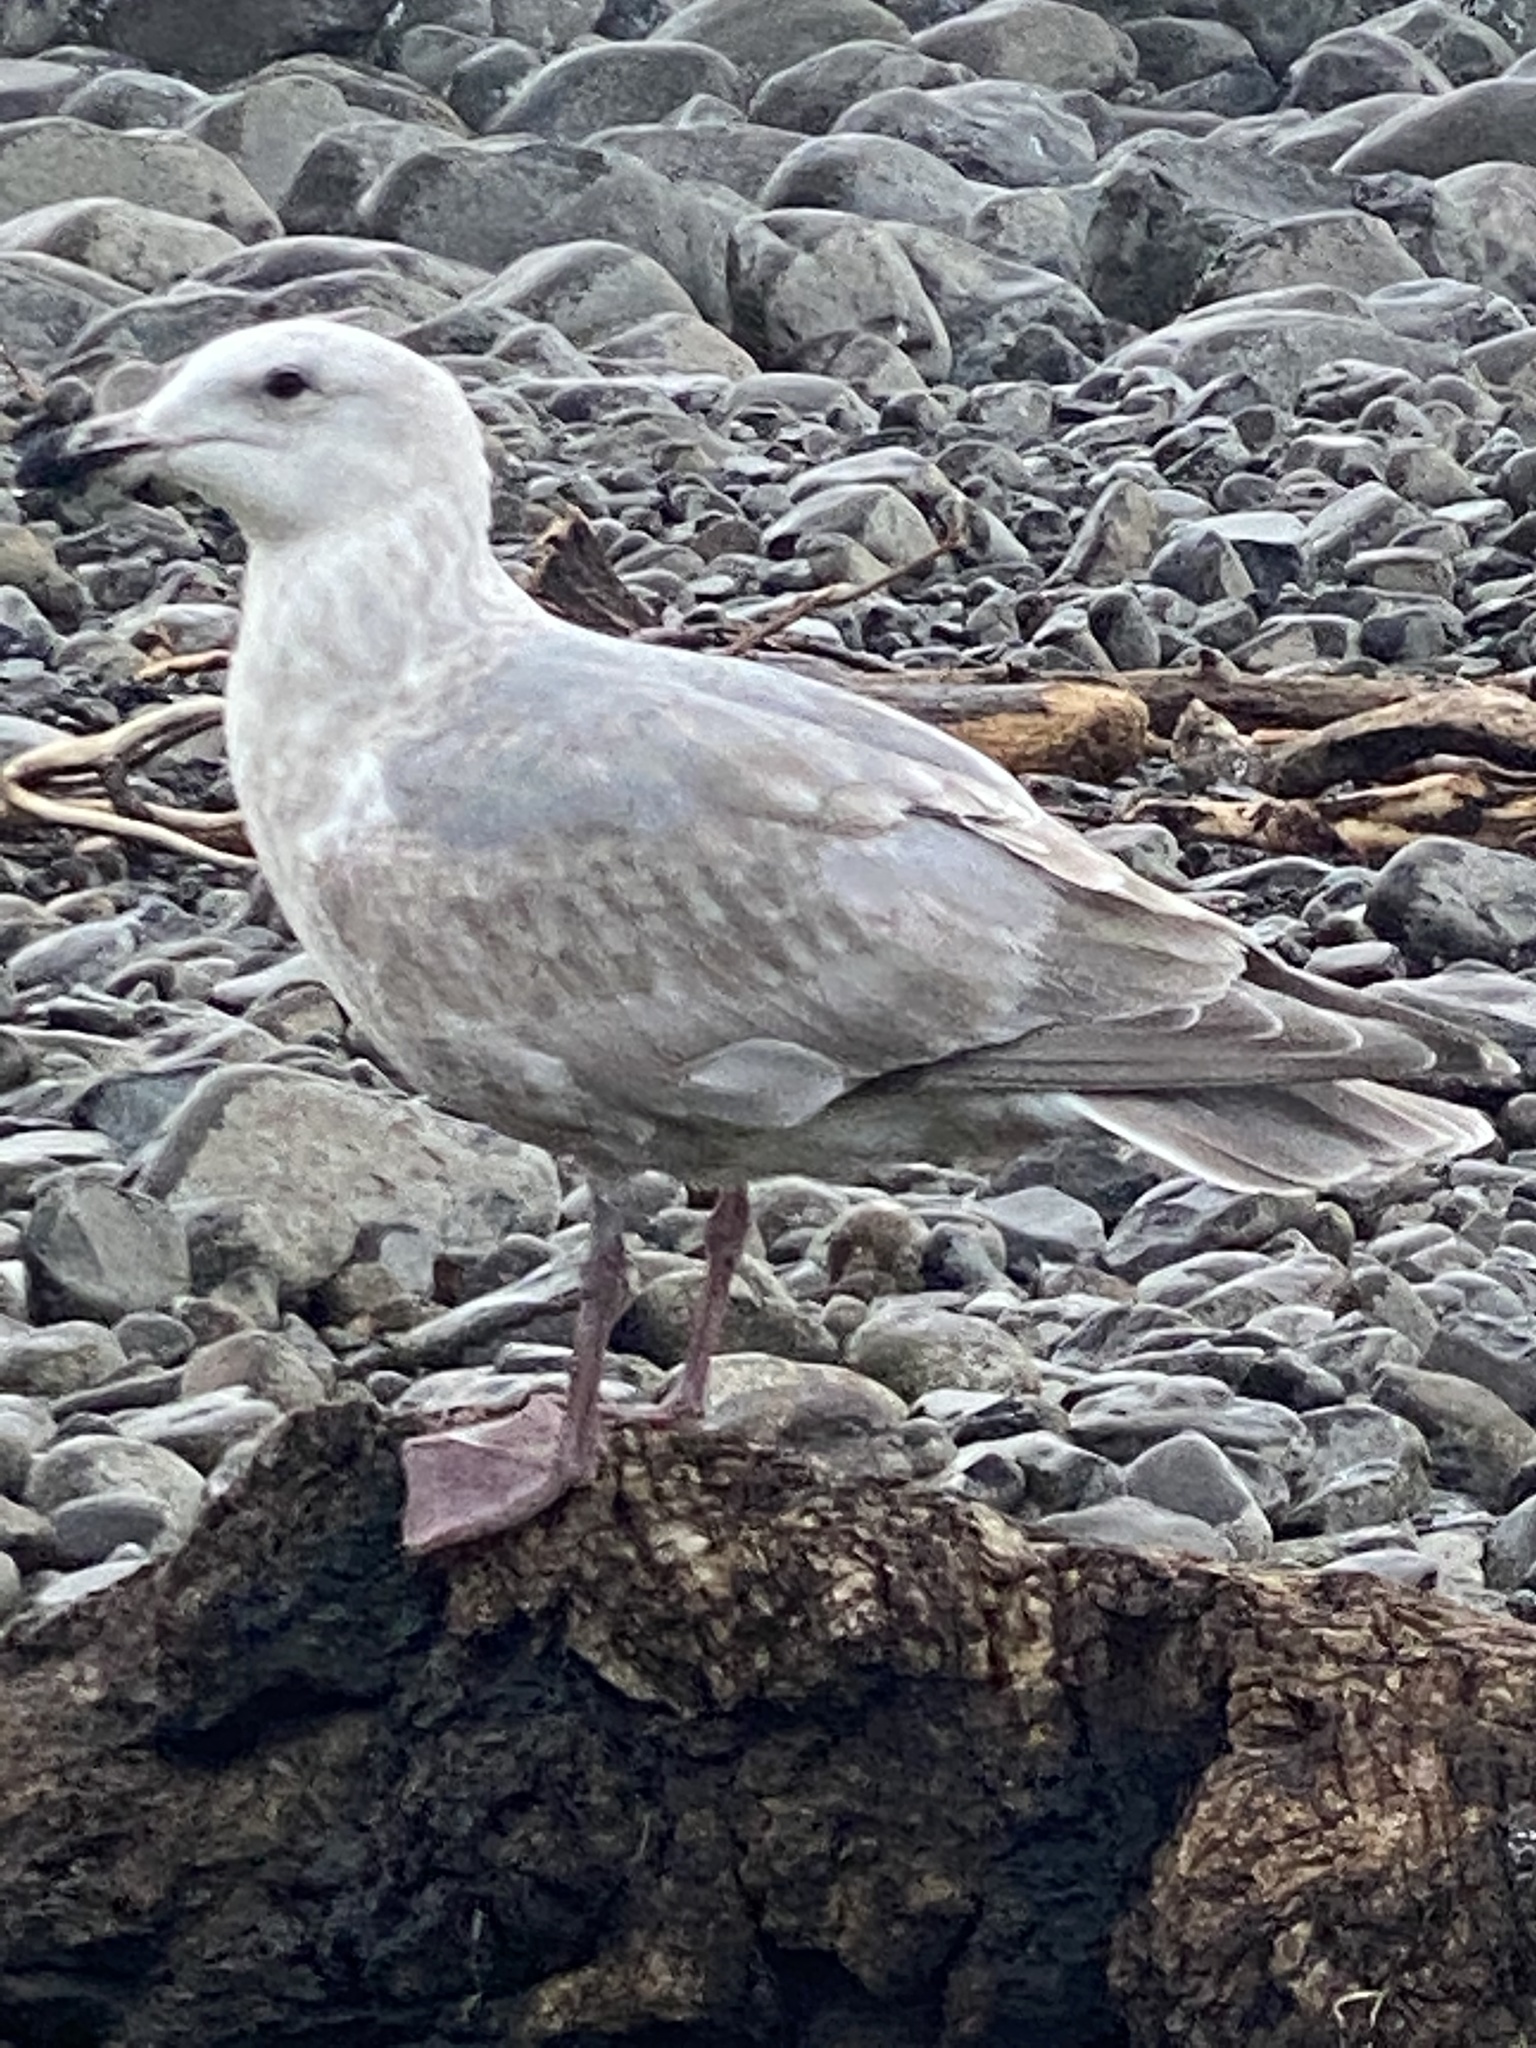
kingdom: Animalia
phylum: Chordata
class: Aves
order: Charadriiformes
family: Laridae
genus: Larus
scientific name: Larus
